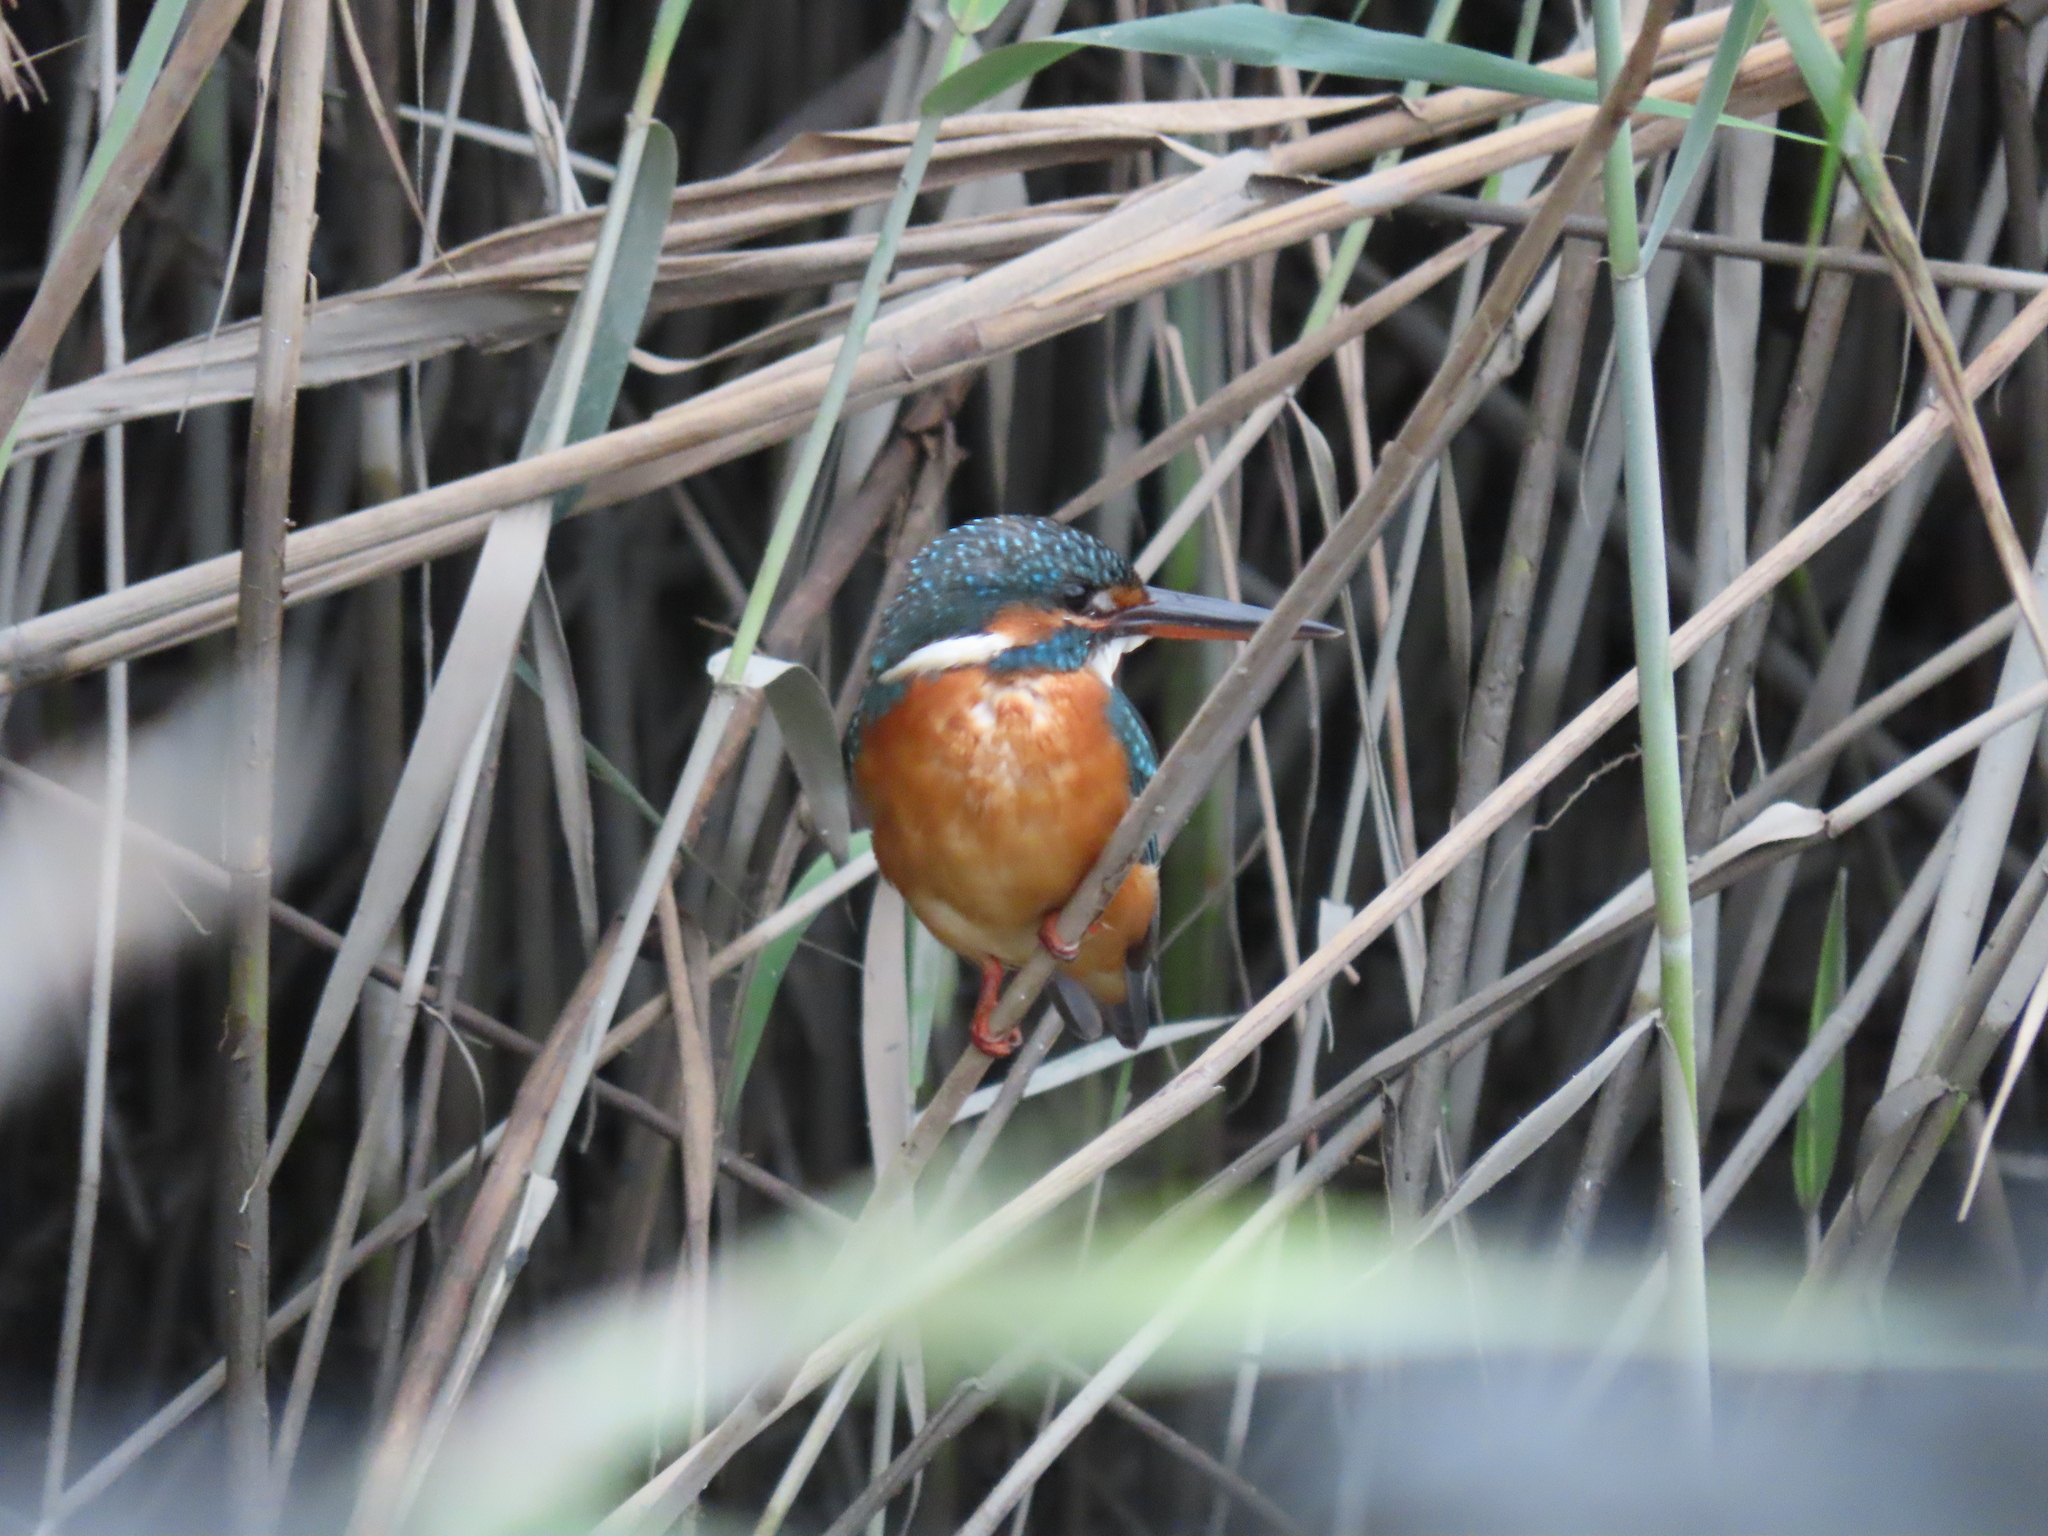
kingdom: Animalia
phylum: Chordata
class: Aves
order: Coraciiformes
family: Alcedinidae
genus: Alcedo
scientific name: Alcedo atthis
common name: Common kingfisher
